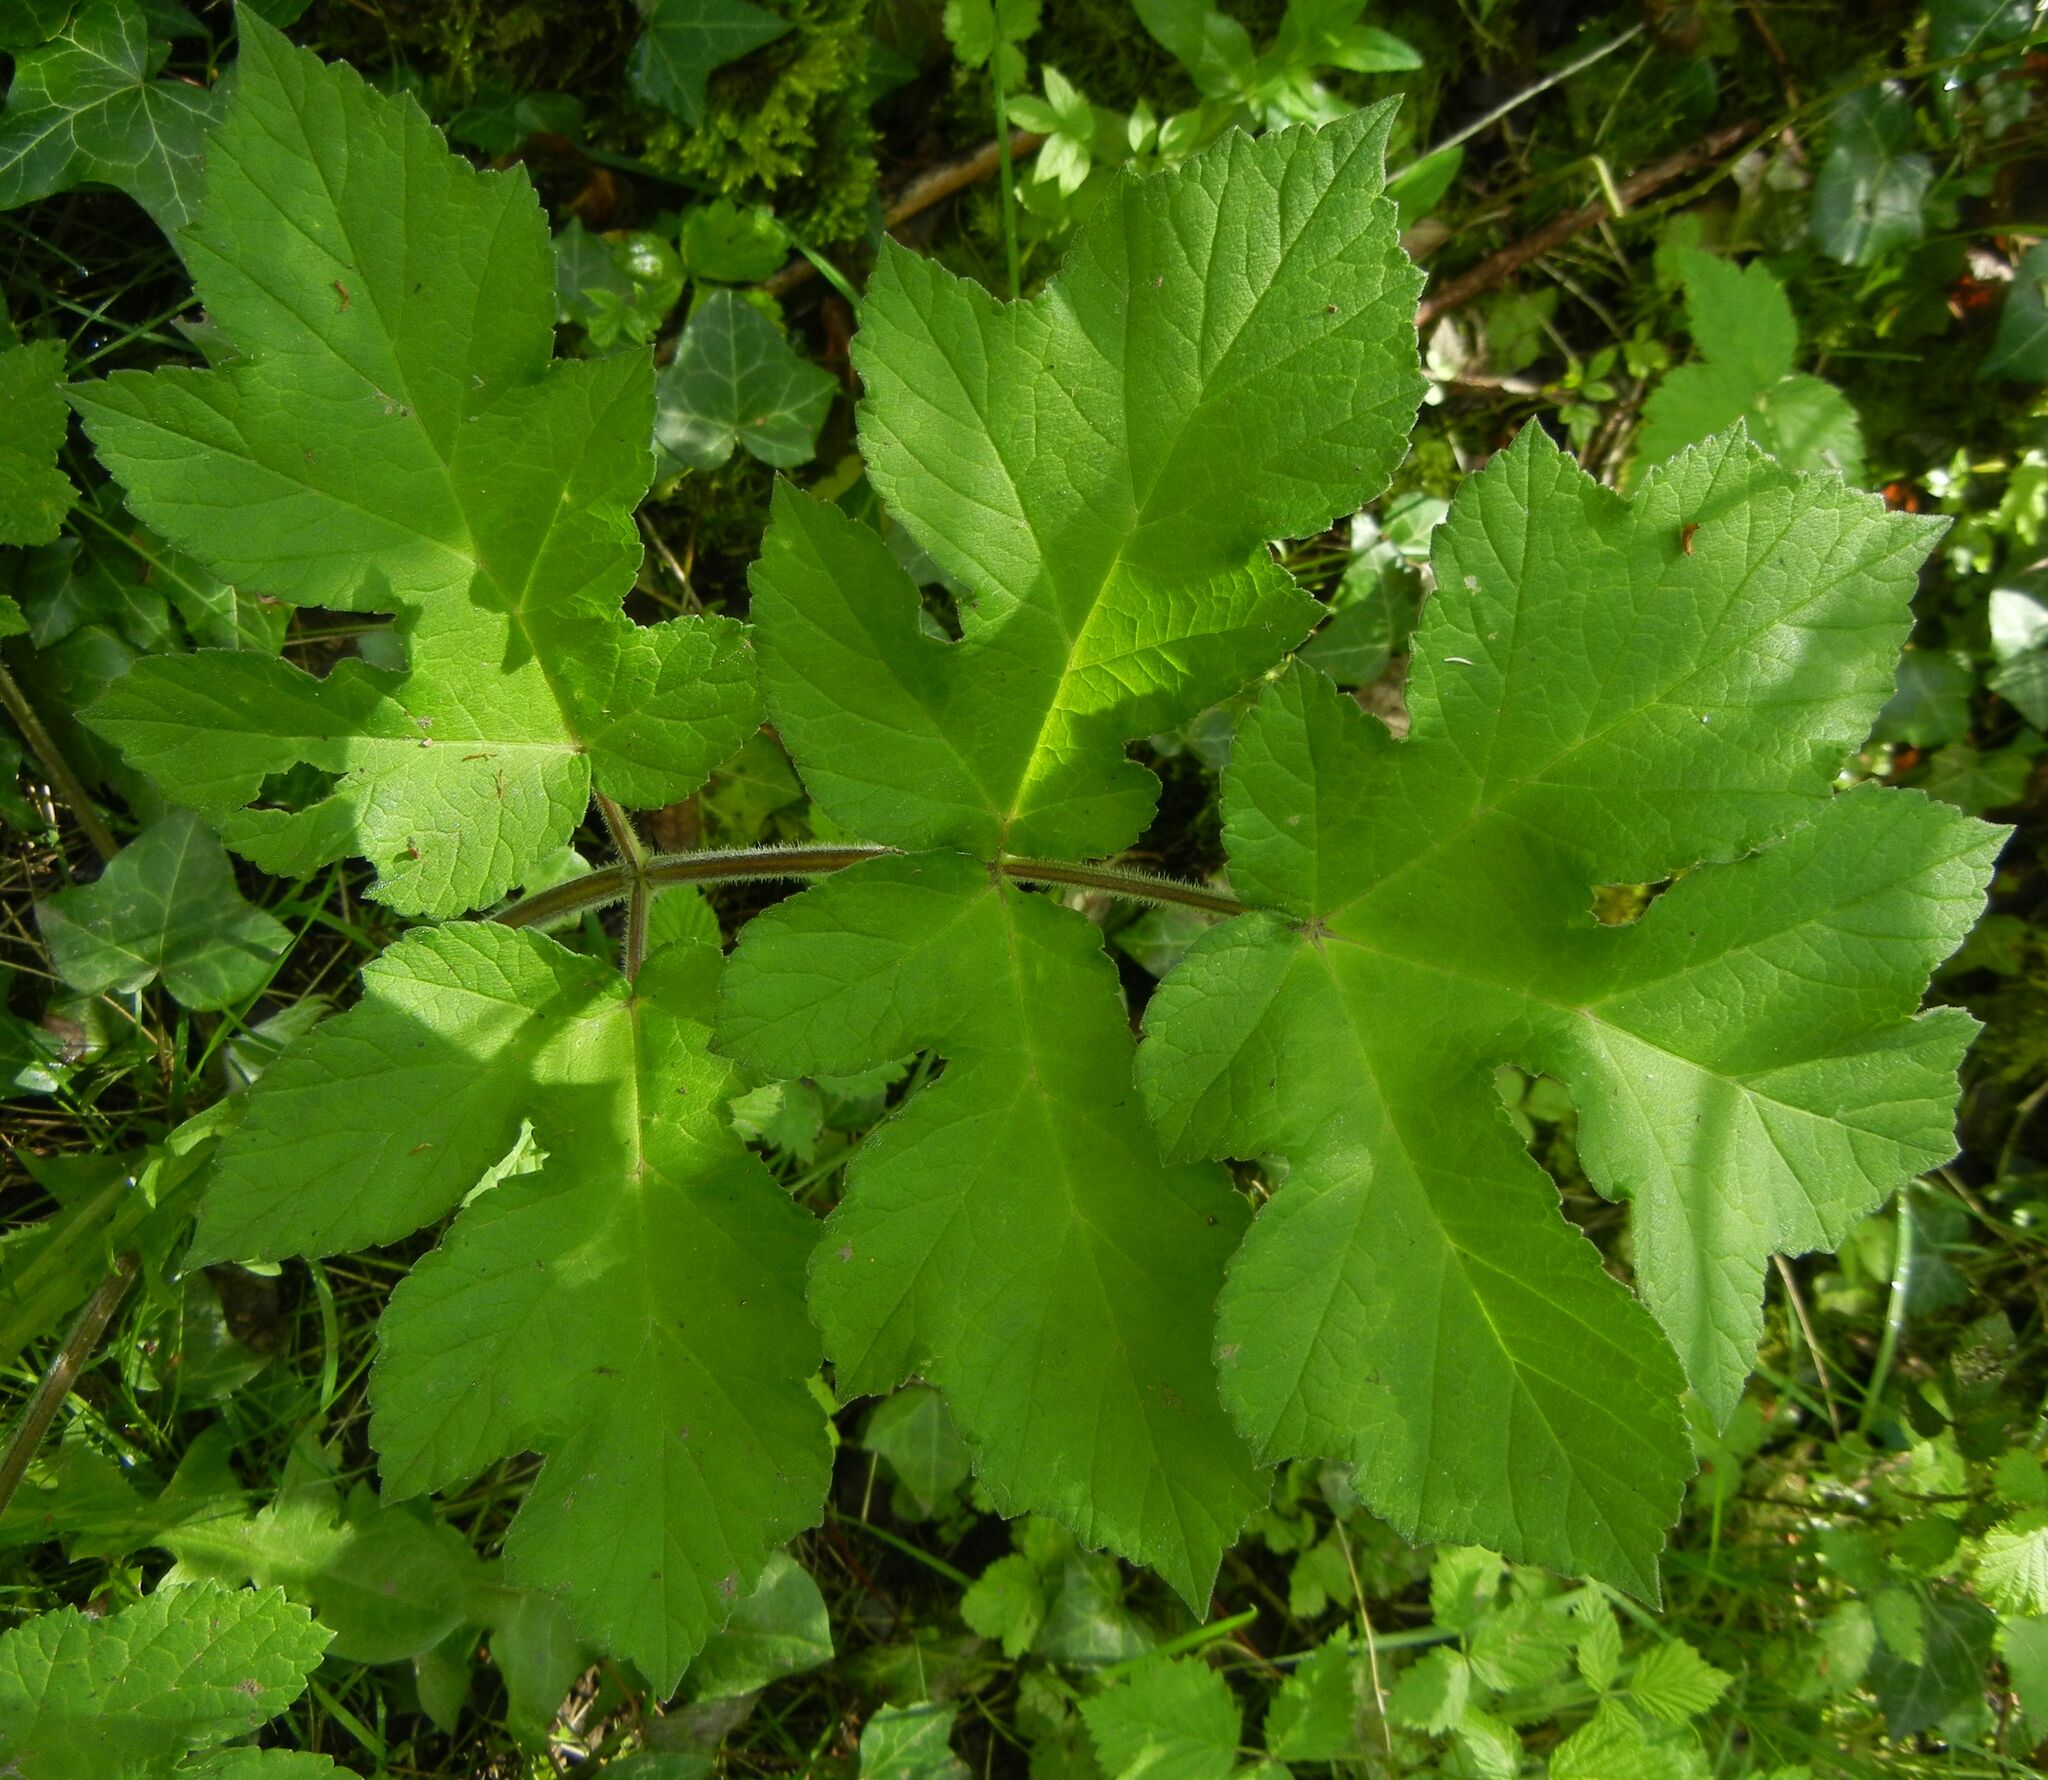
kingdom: Plantae
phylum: Tracheophyta
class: Magnoliopsida
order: Apiales
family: Apiaceae
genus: Heracleum
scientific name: Heracleum sphondylium
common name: Hogweed
